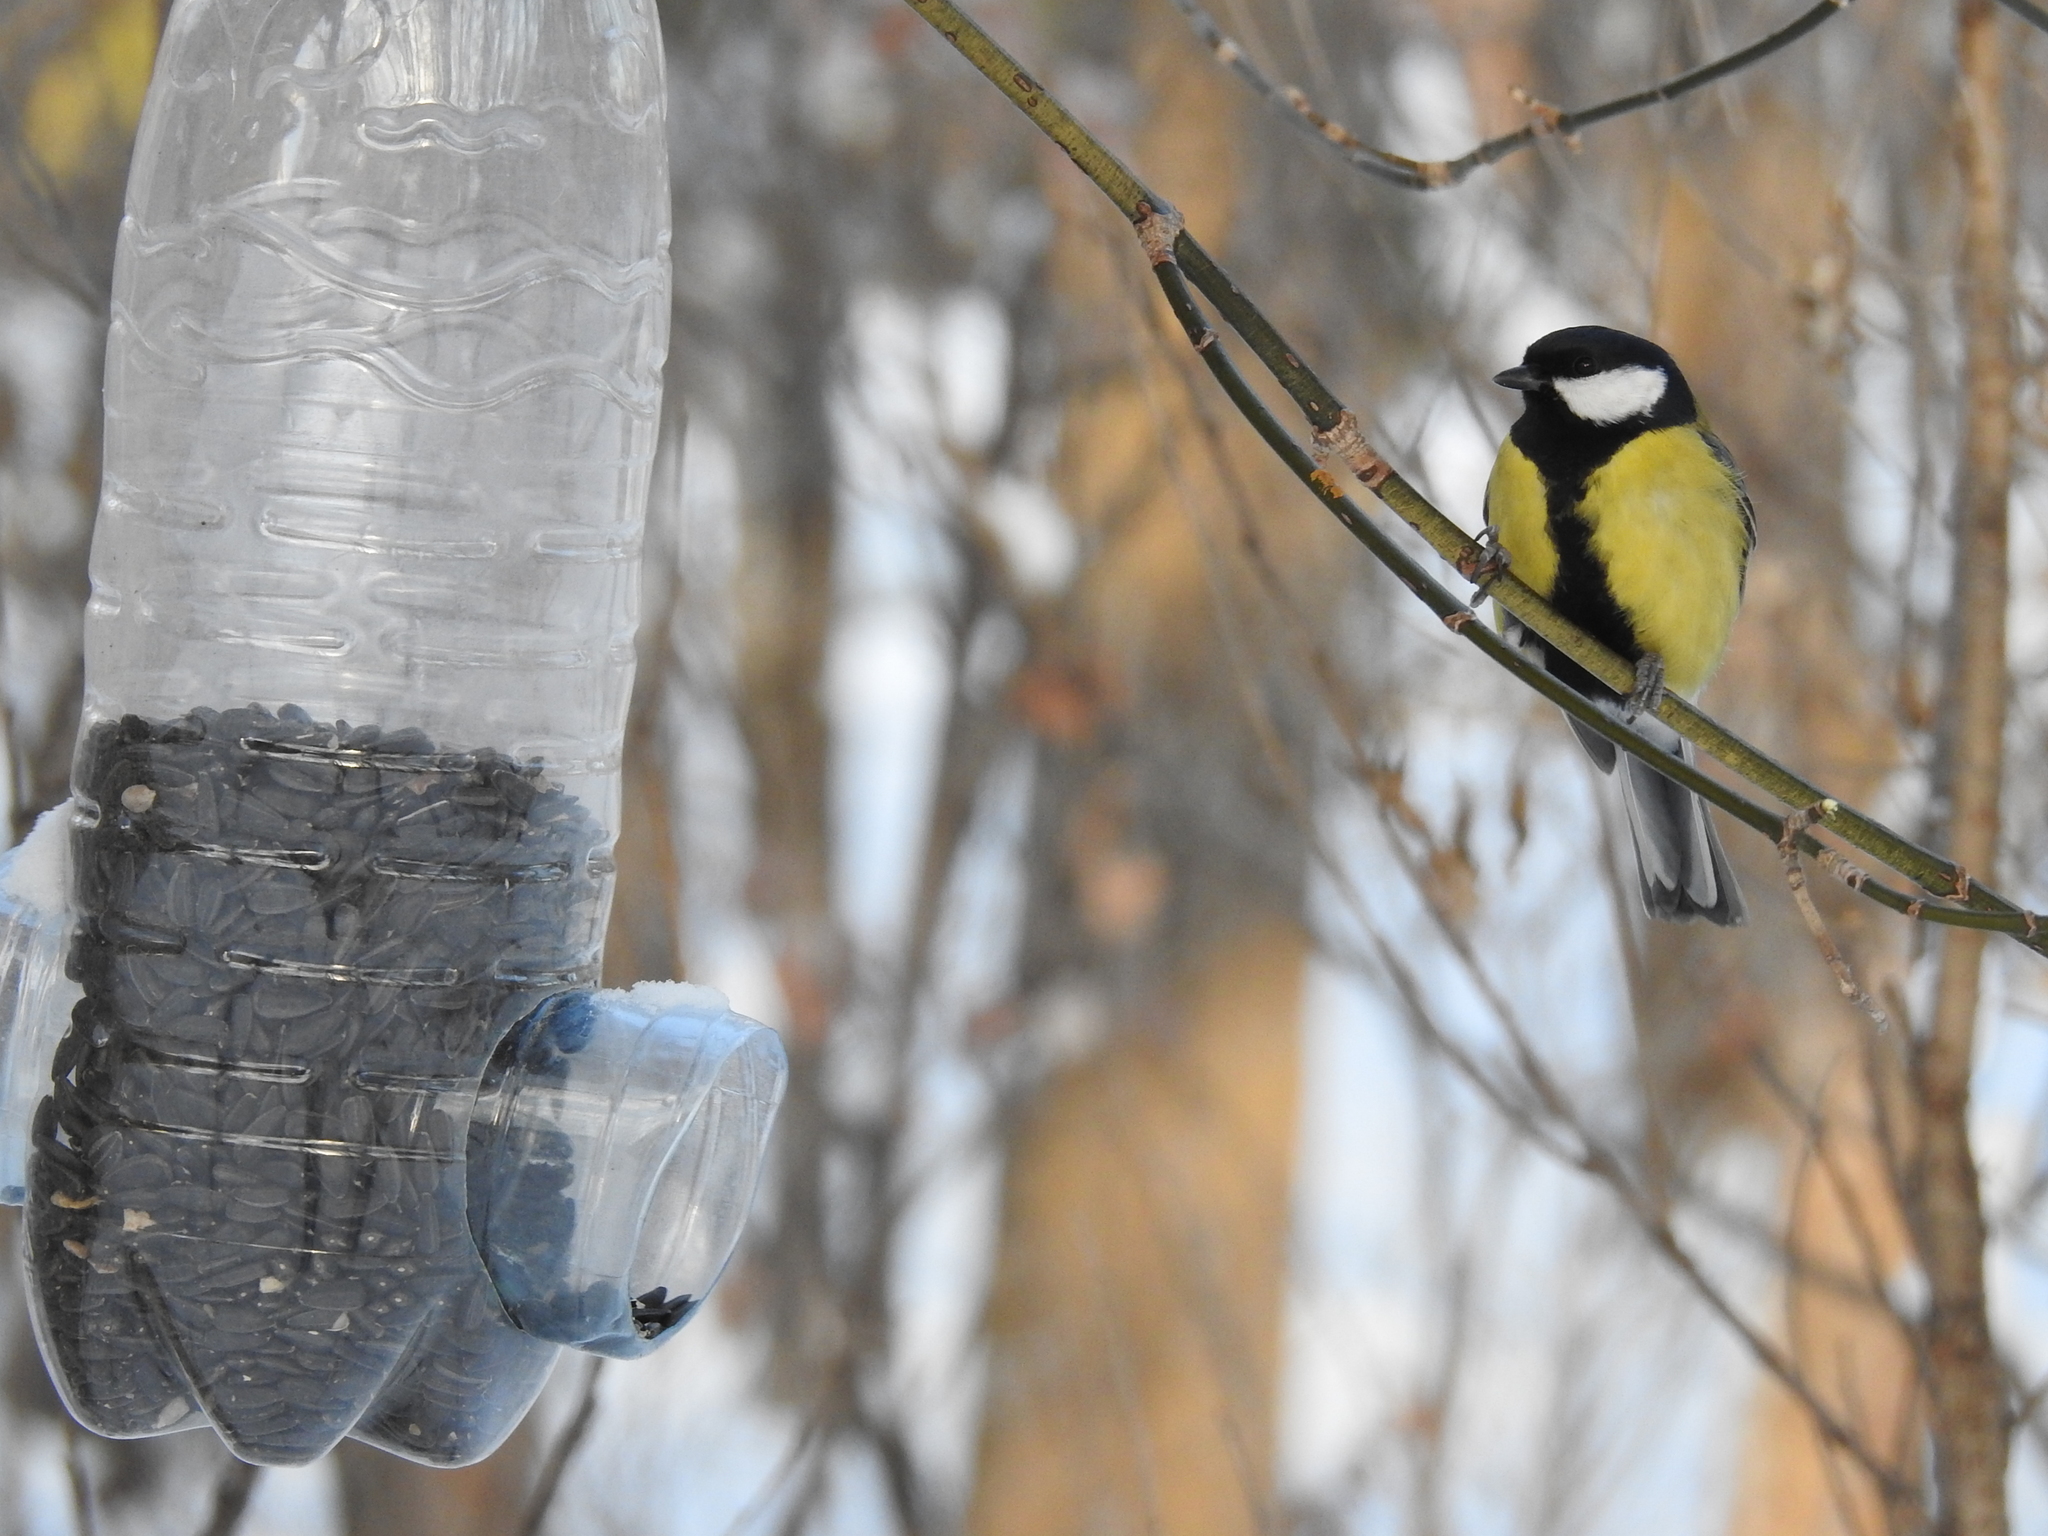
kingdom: Animalia
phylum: Chordata
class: Aves
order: Passeriformes
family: Paridae
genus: Parus
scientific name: Parus major
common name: Great tit
